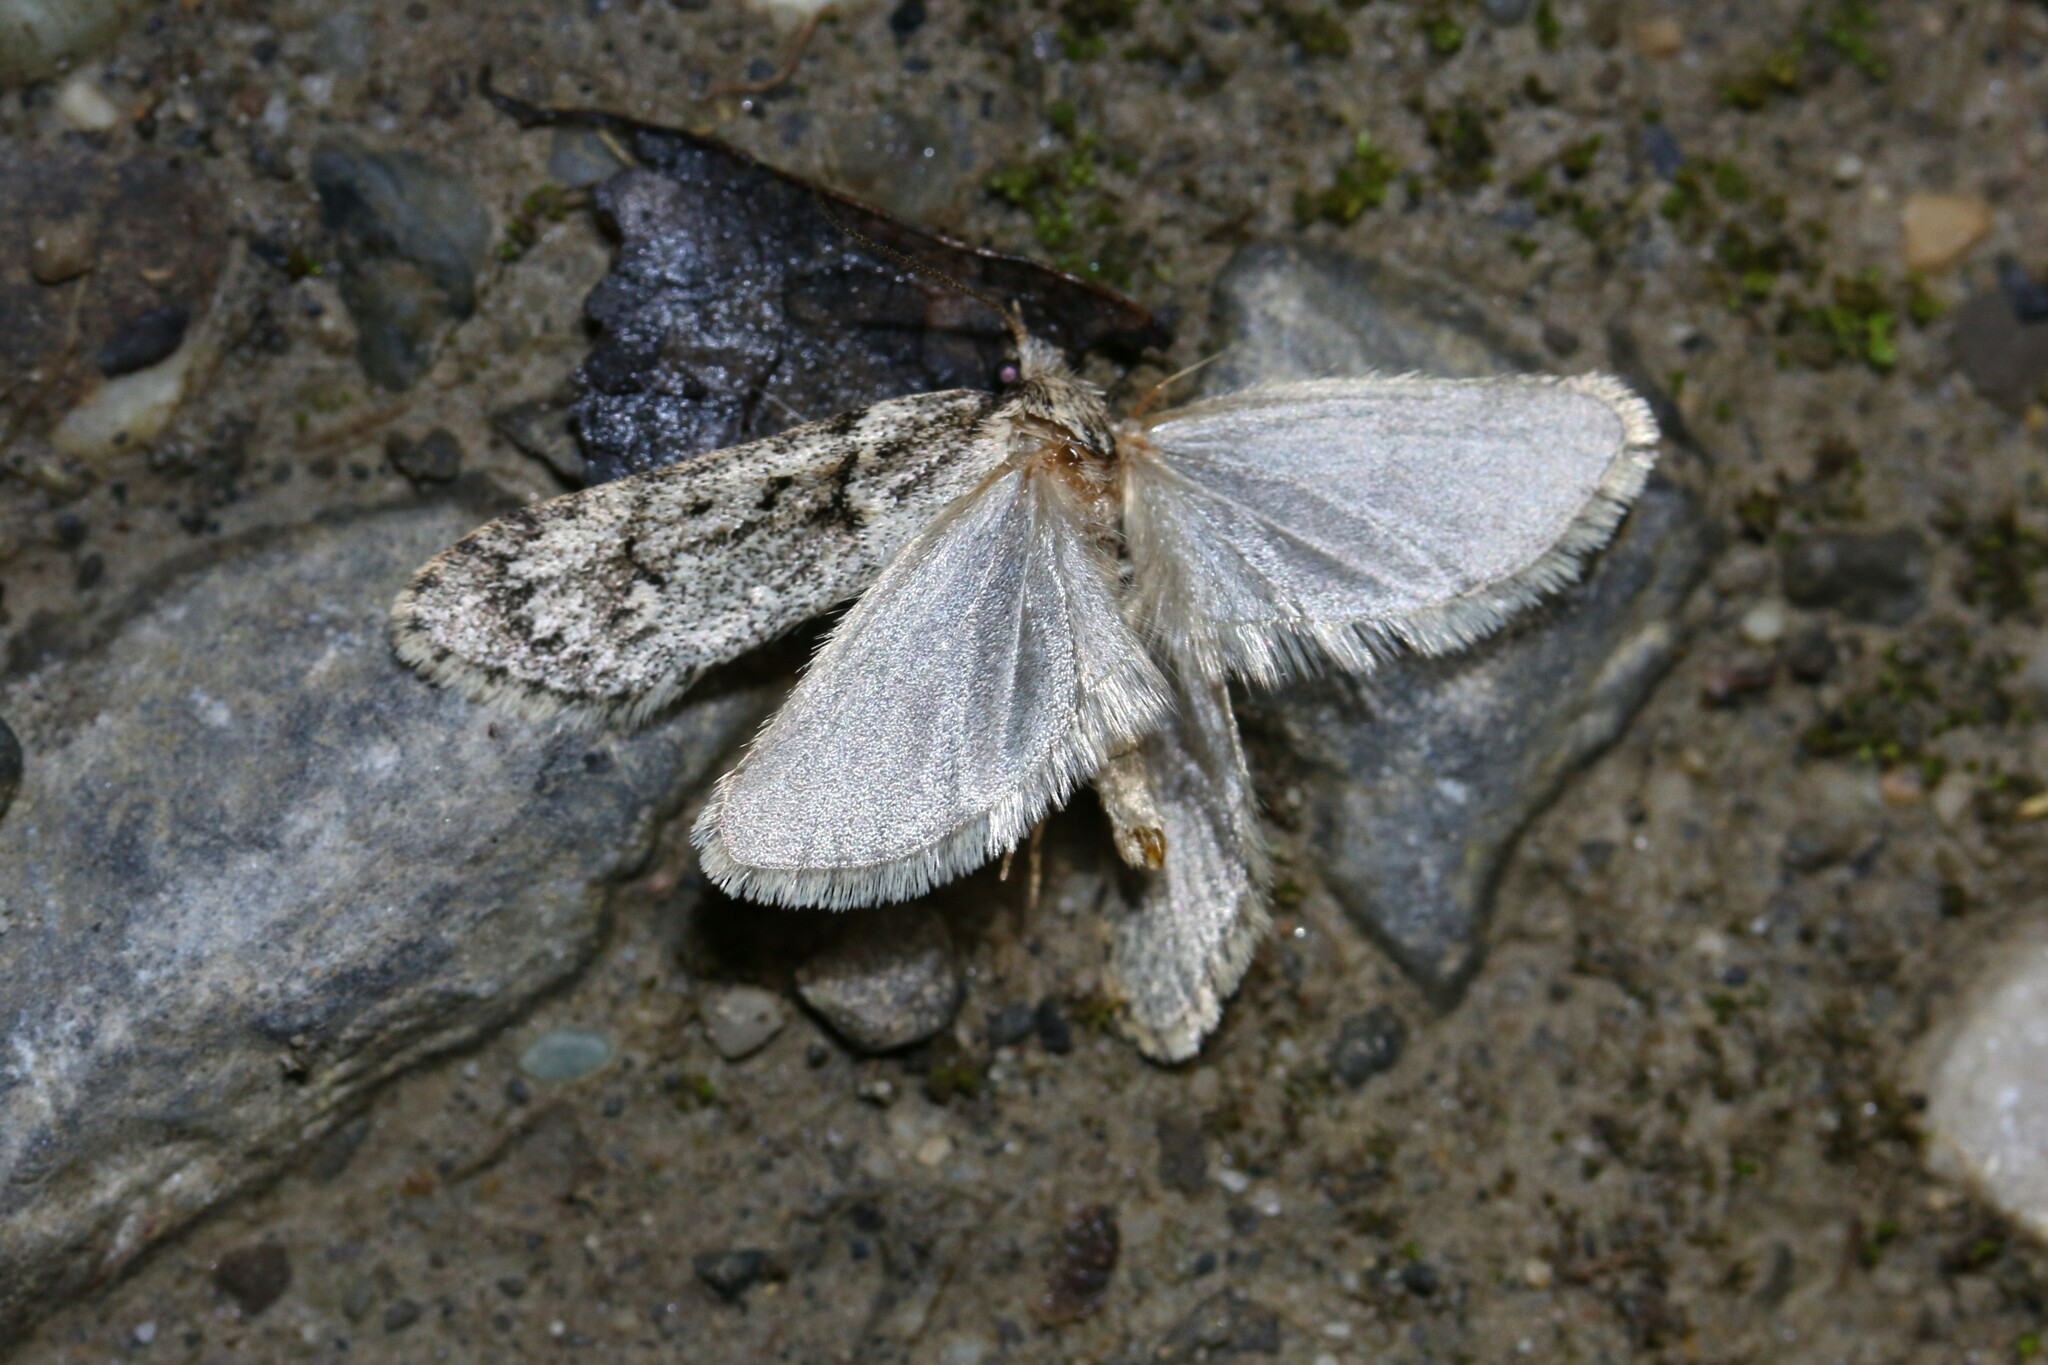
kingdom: Animalia
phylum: Arthropoda
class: Insecta
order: Lepidoptera
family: Lypusidae
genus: Diurnea
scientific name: Diurnea fagella
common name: March tubic
